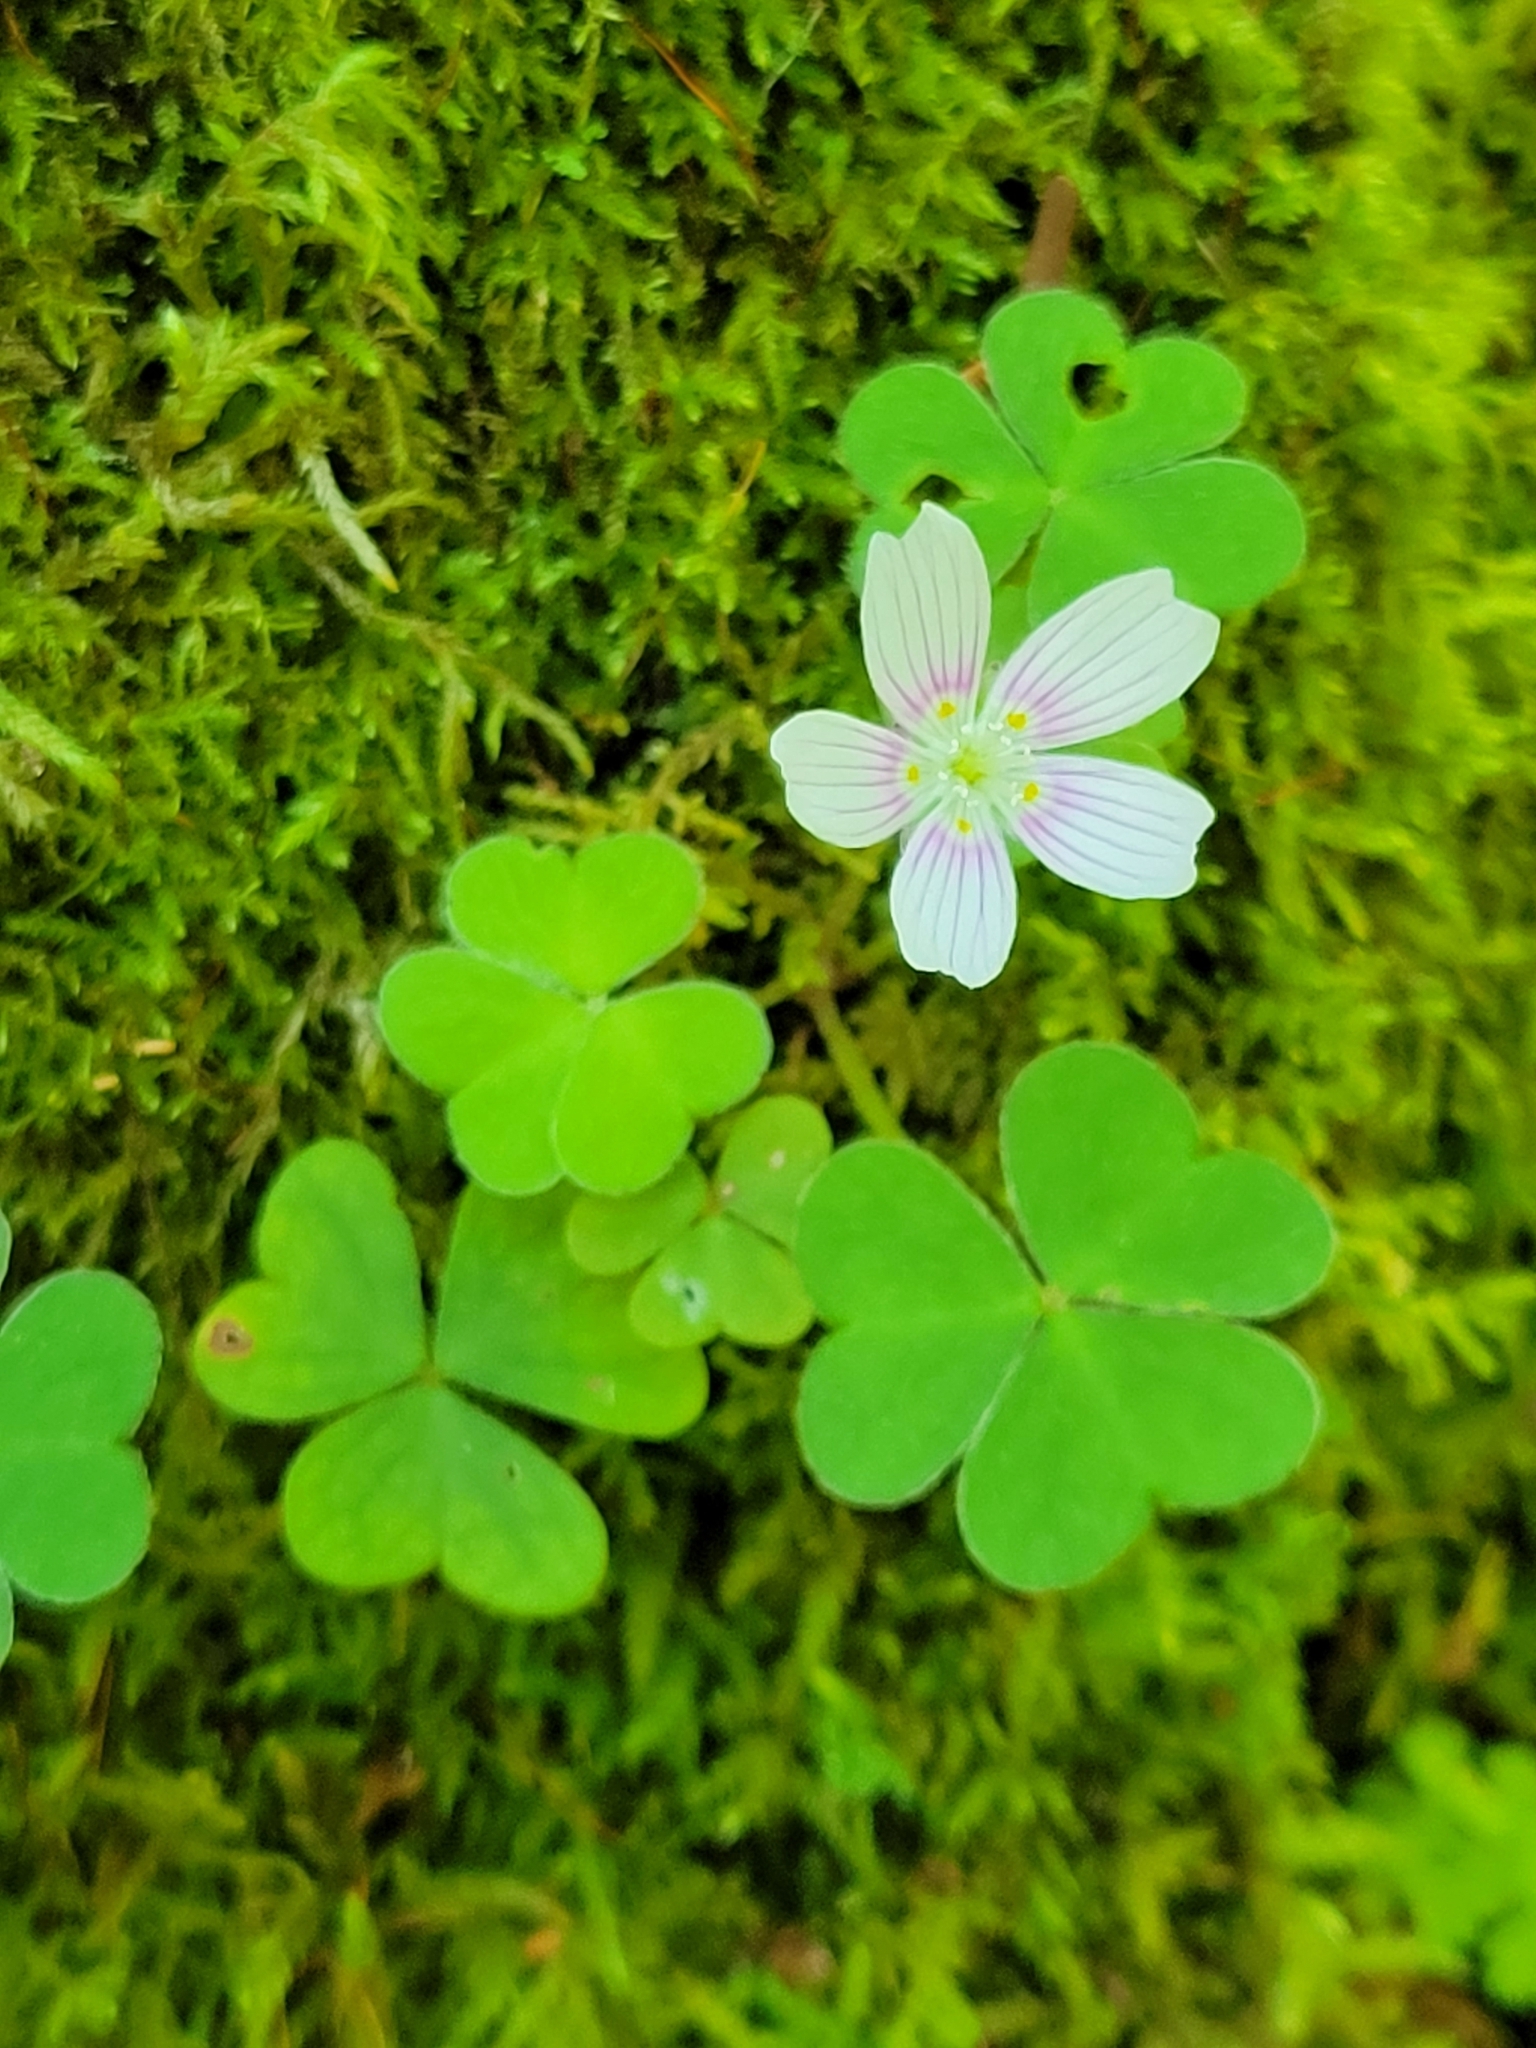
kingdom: Plantae
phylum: Tracheophyta
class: Magnoliopsida
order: Oxalidales
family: Oxalidaceae
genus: Oxalis
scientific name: Oxalis montana
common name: American wood-sorrel
